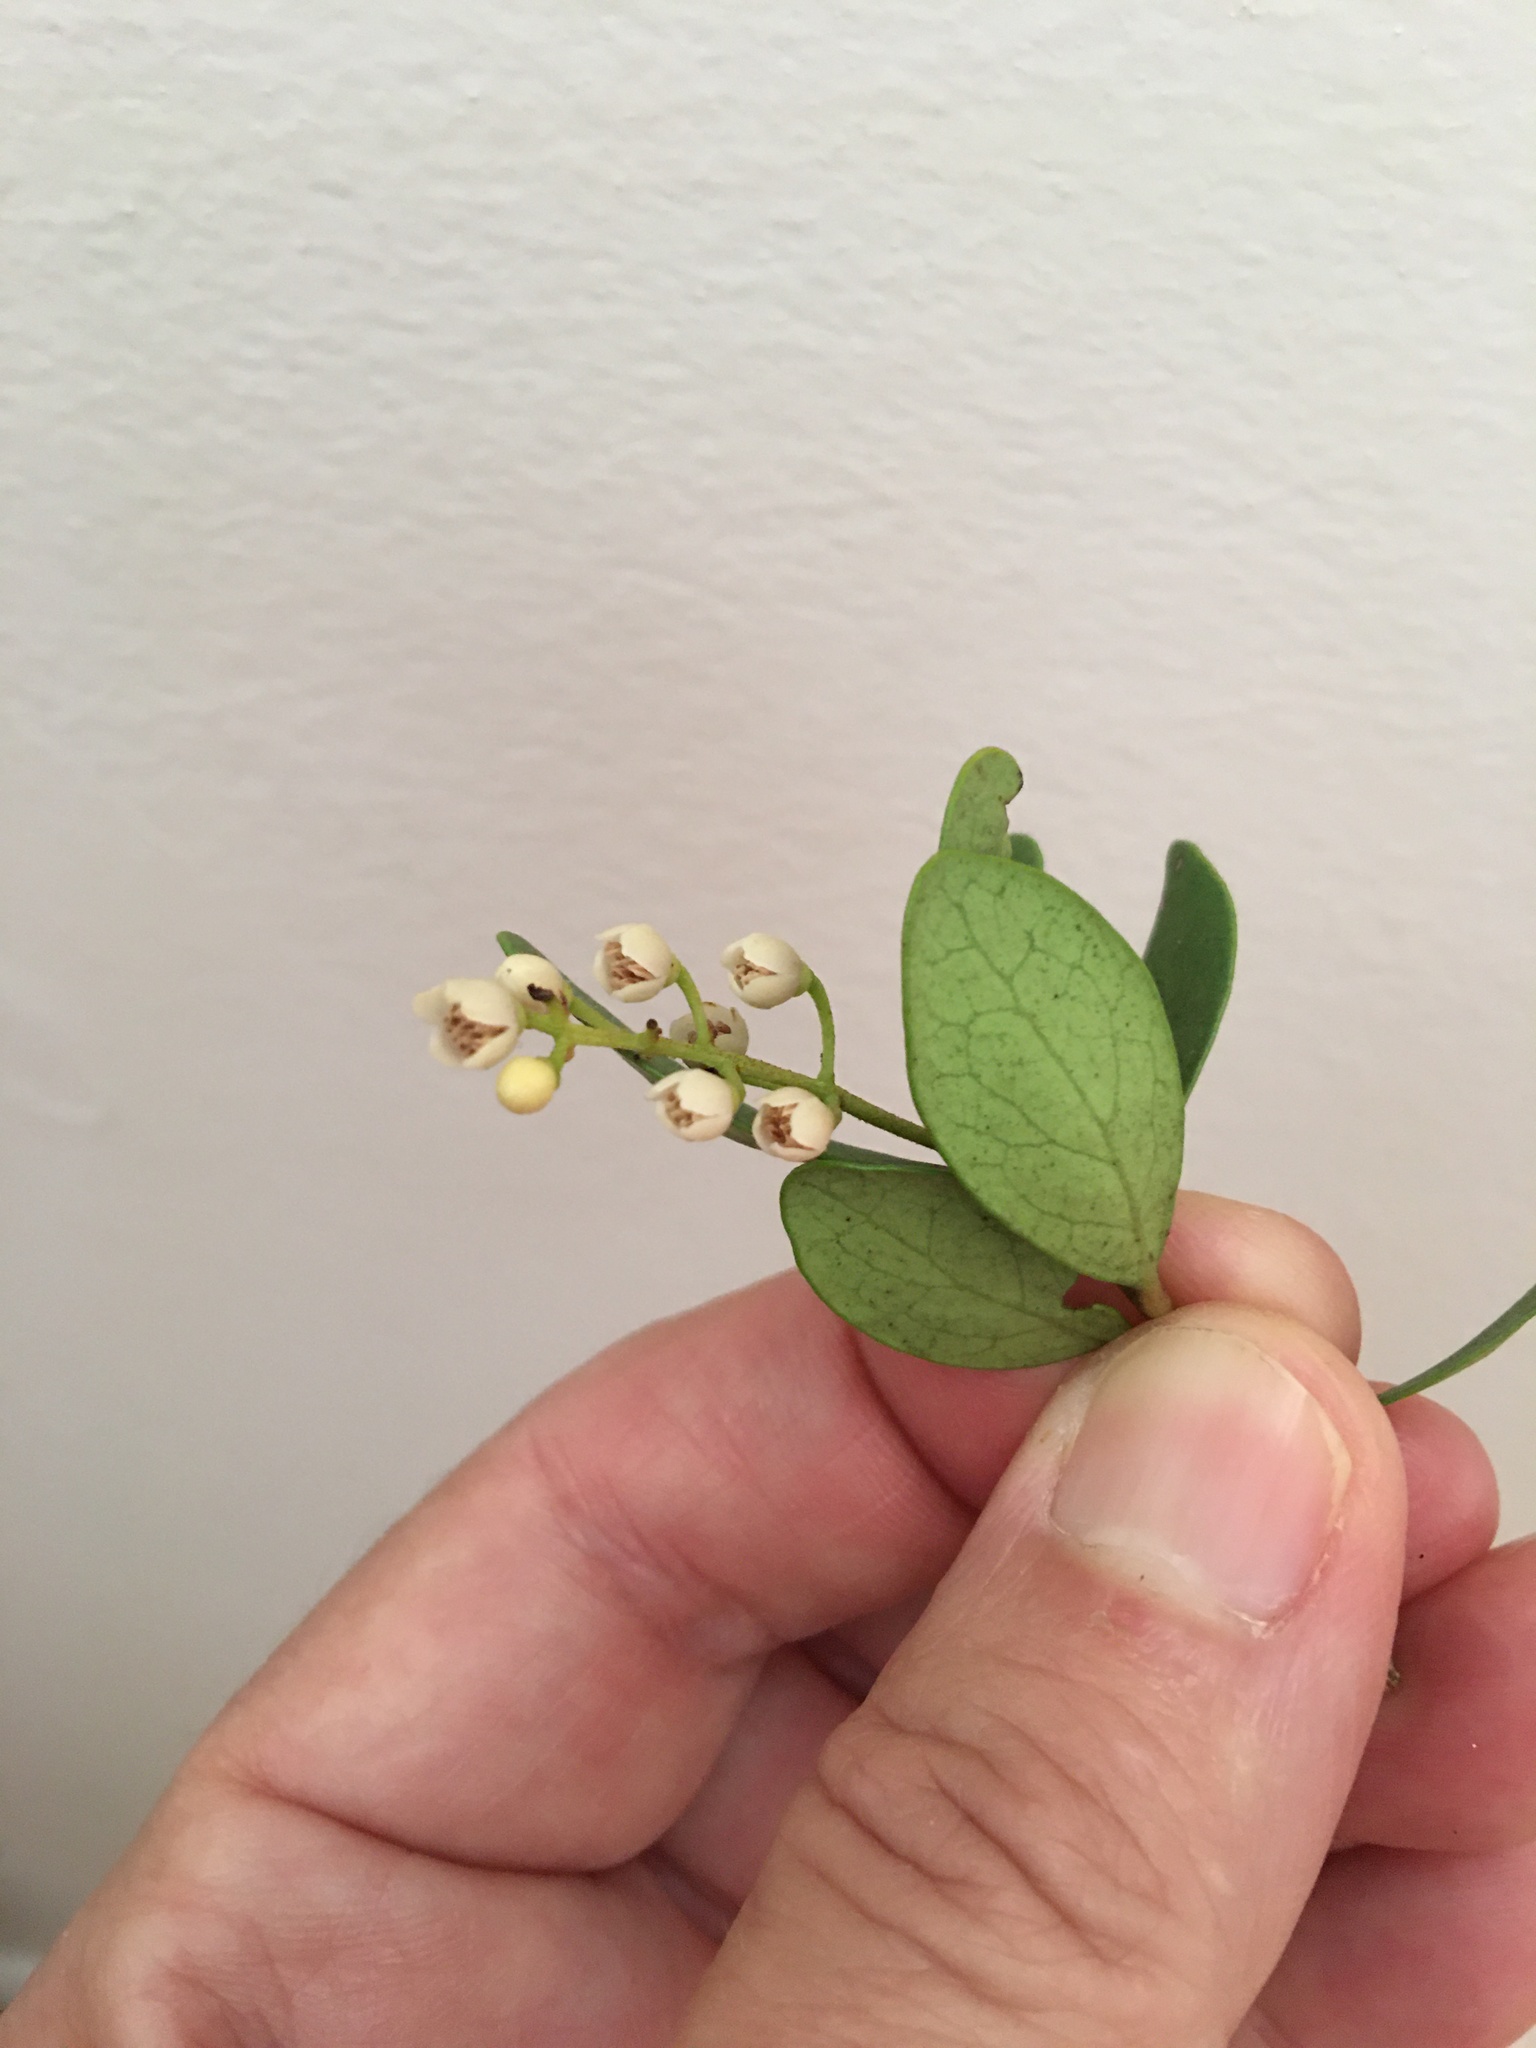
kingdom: Plantae
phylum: Tracheophyta
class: Magnoliopsida
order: Ericales
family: Ebenaceae
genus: Euclea
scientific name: Euclea racemosa
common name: Dune guarri
